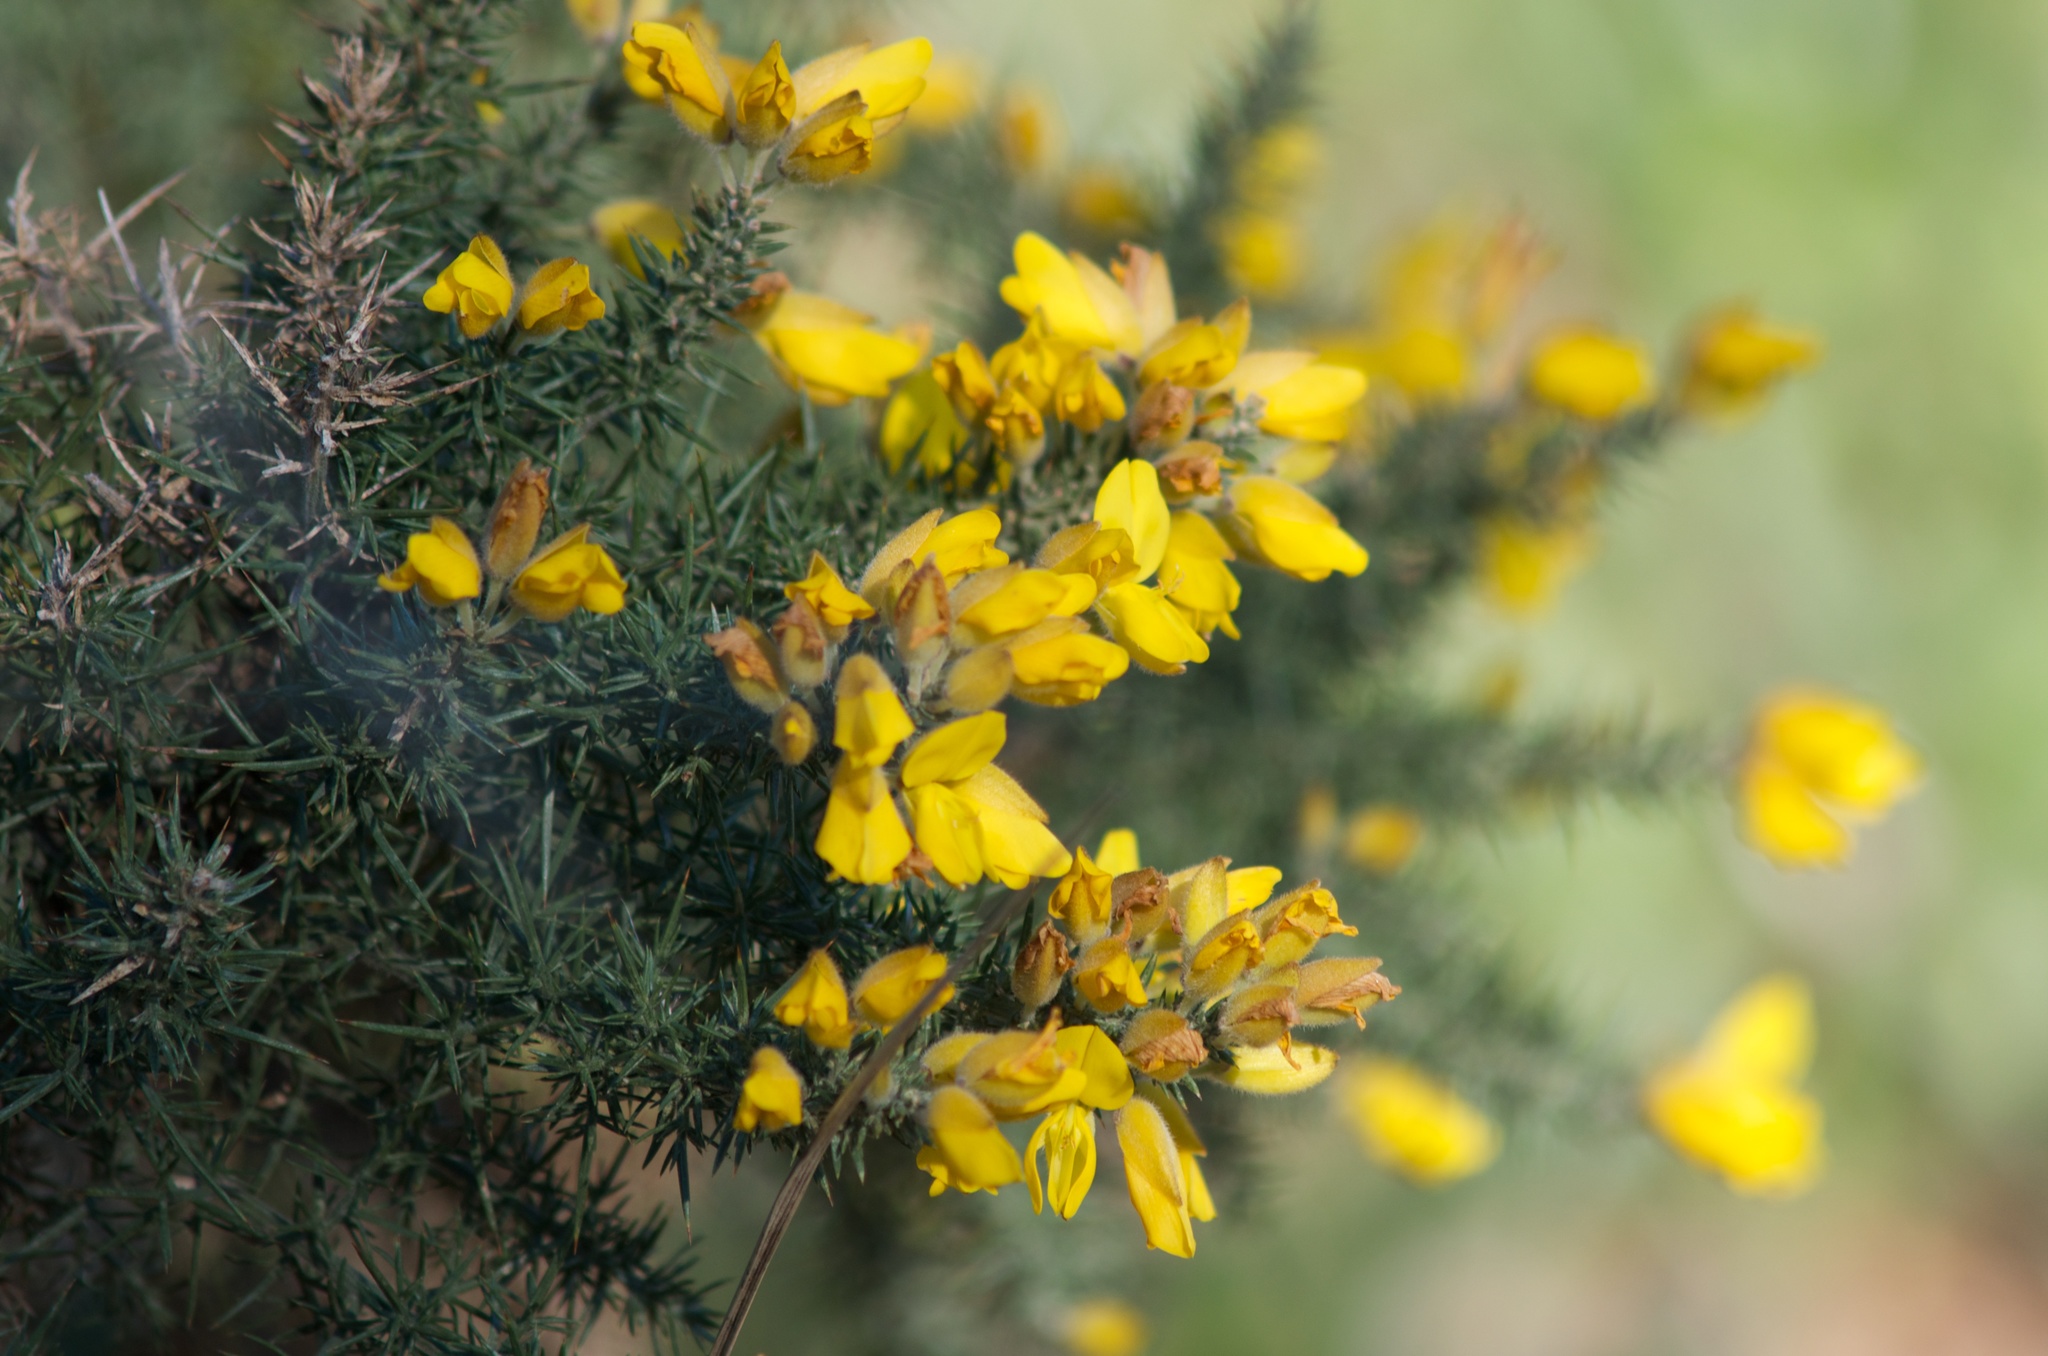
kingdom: Plantae
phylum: Tracheophyta
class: Magnoliopsida
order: Fabales
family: Fabaceae
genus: Ulex
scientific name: Ulex europaeus
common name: Common gorse
